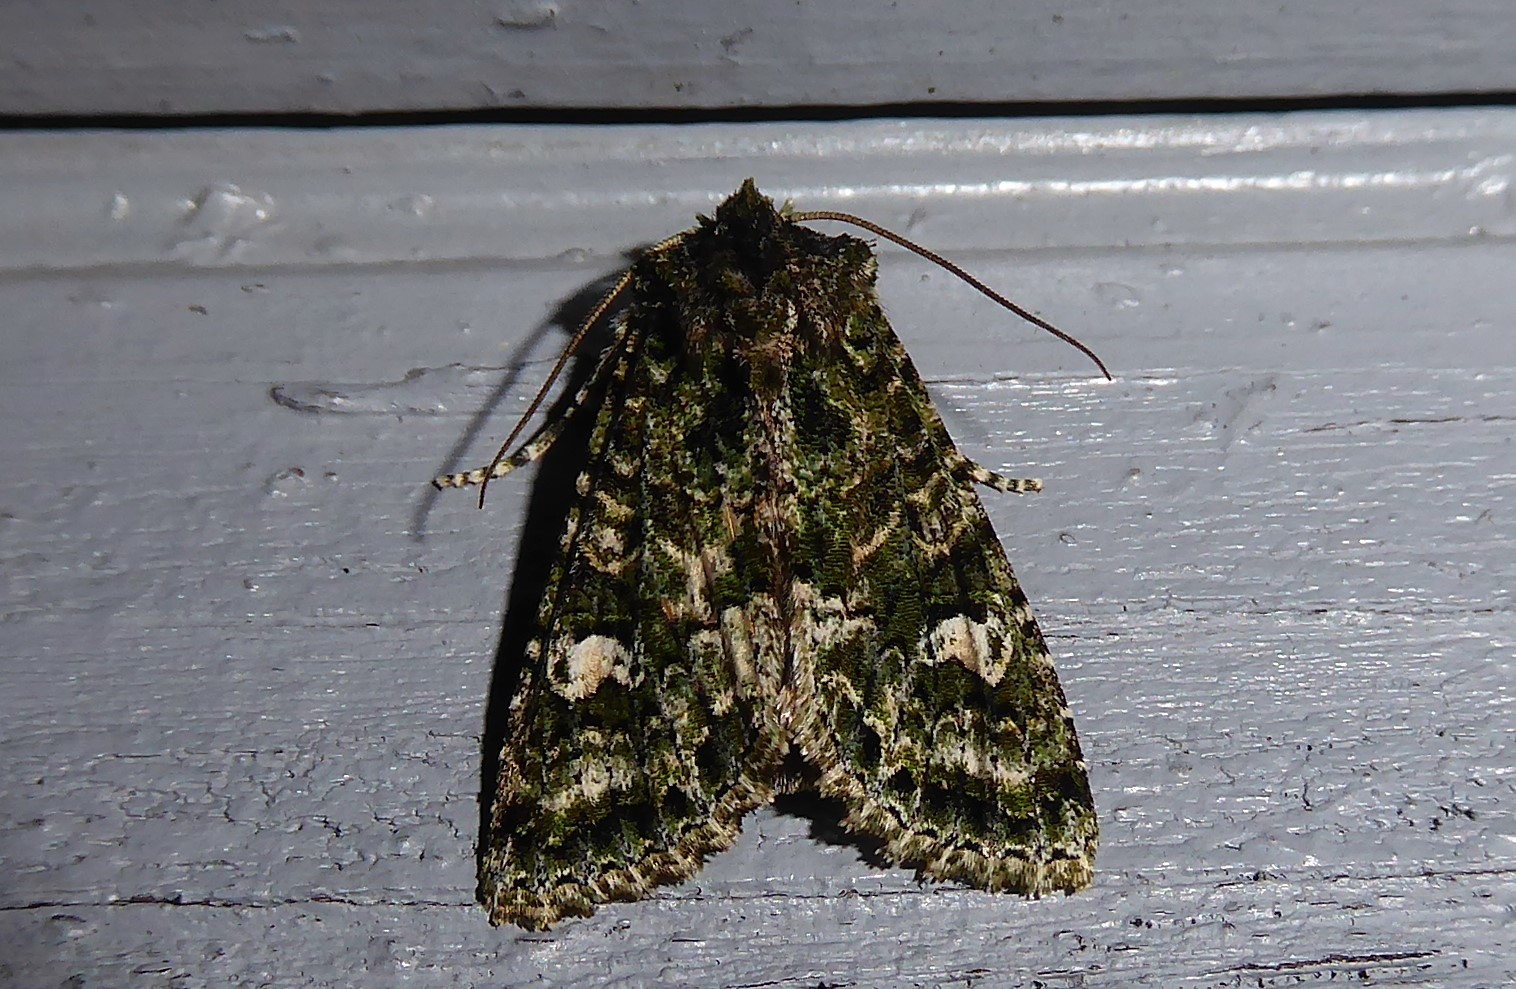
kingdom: Animalia
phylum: Arthropoda
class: Insecta
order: Lepidoptera
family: Noctuidae
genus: Ichneutica
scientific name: Ichneutica
